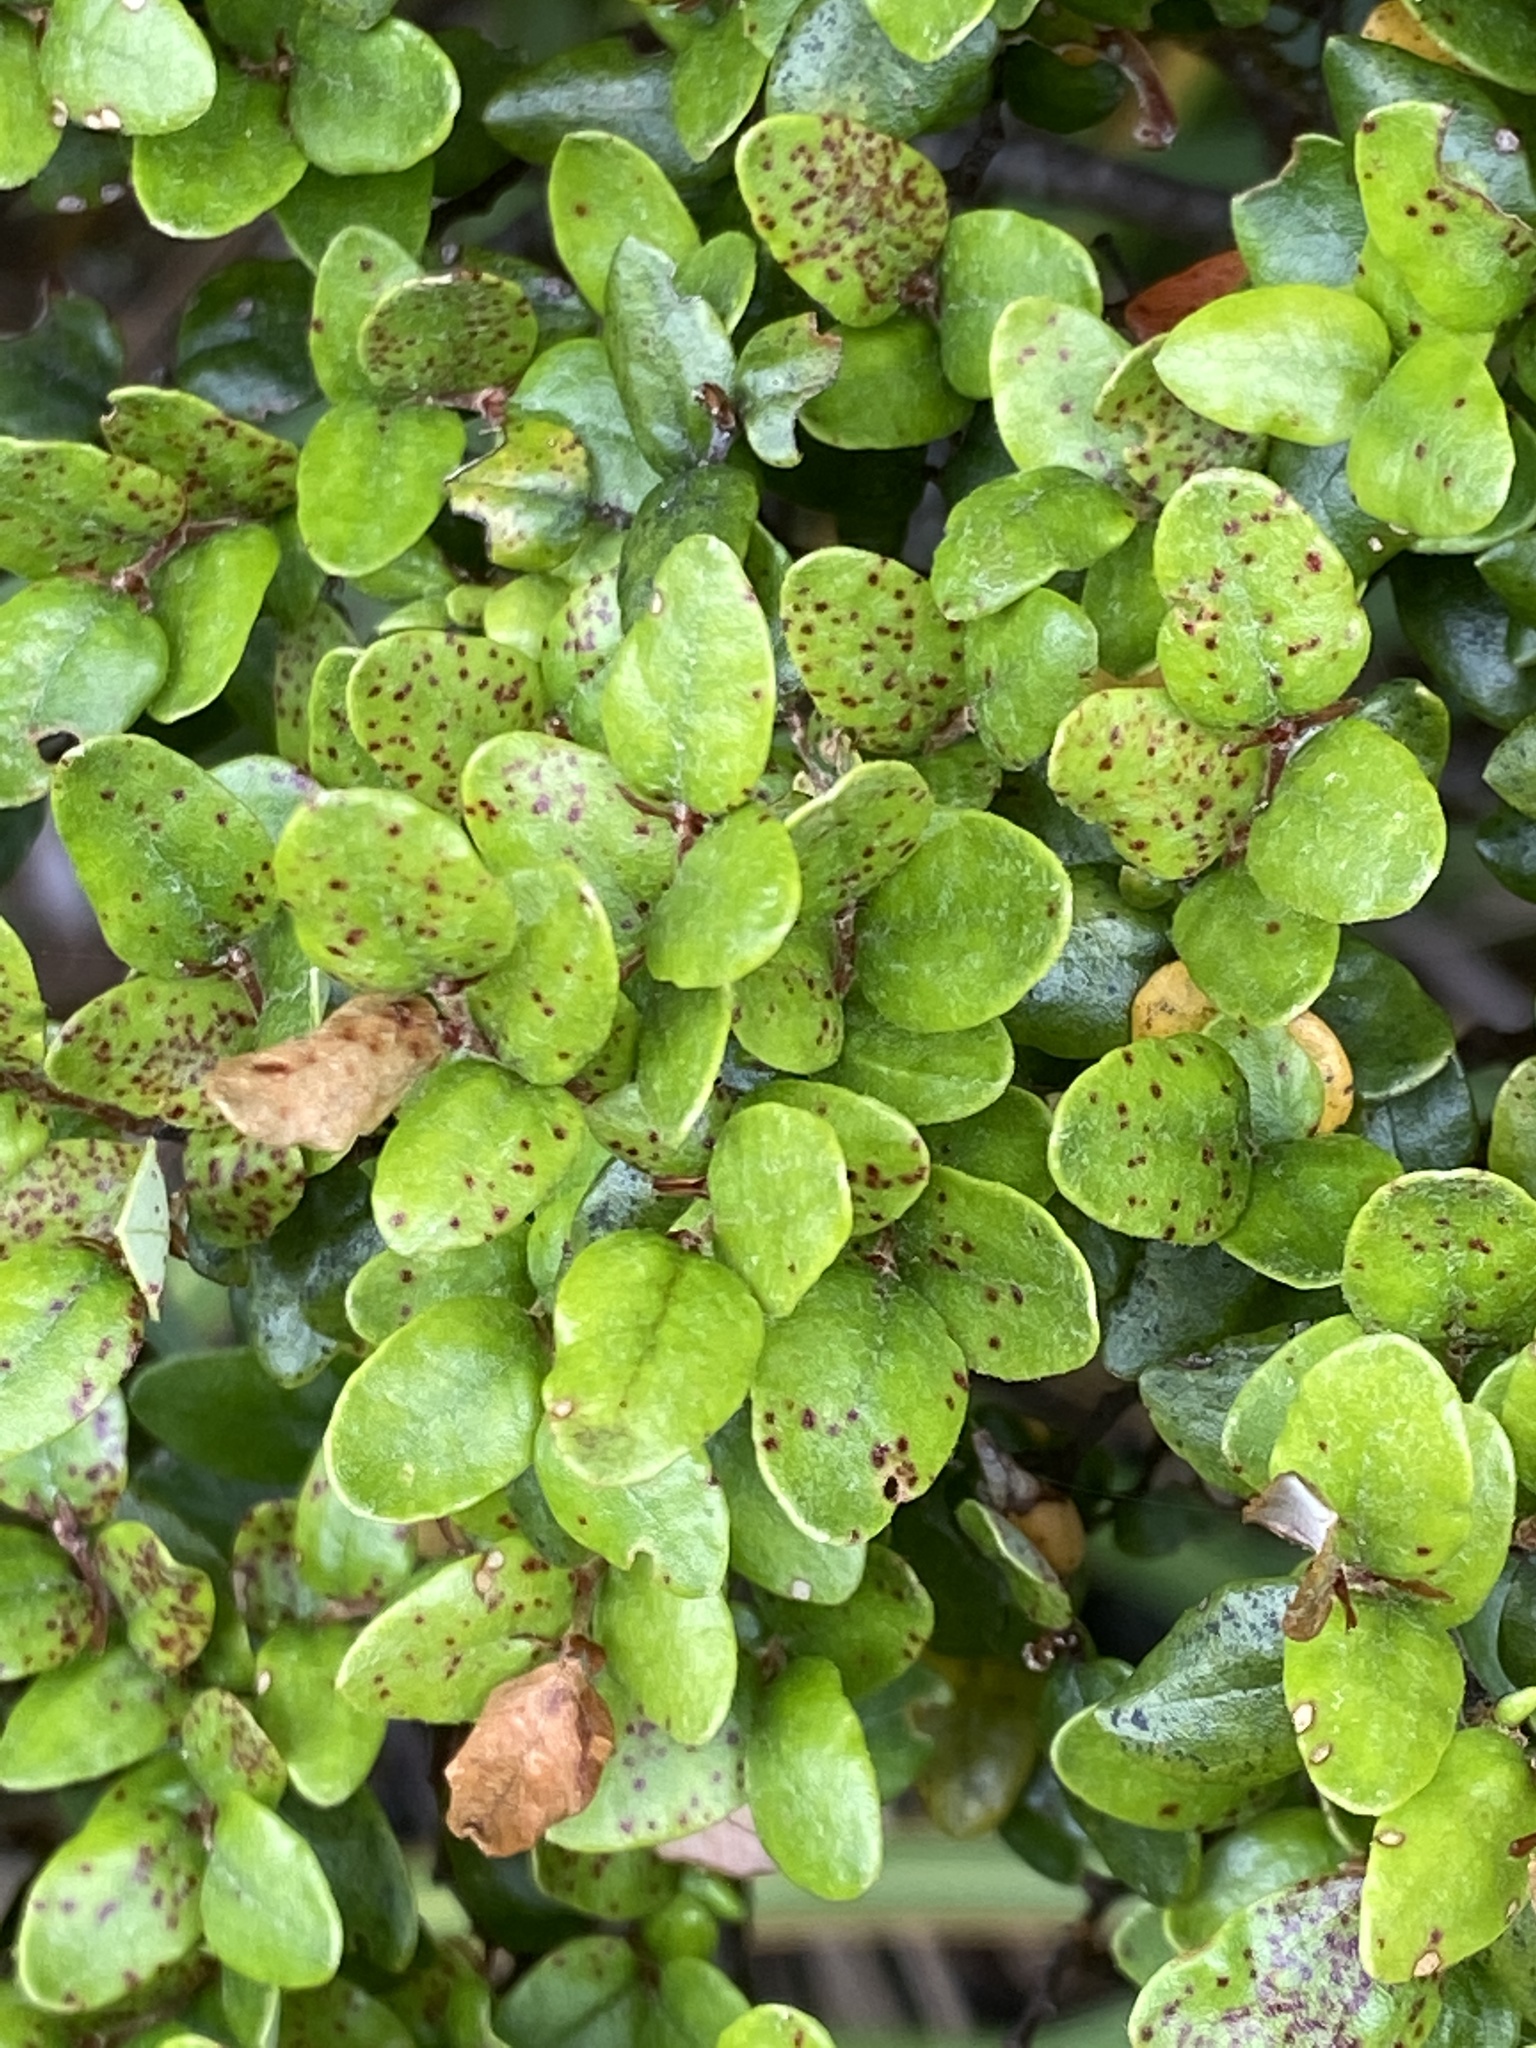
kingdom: Plantae
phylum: Tracheophyta
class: Magnoliopsida
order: Fagales
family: Nothofagaceae
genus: Nothofagus
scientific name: Nothofagus cliffortioides
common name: Mountain beech
